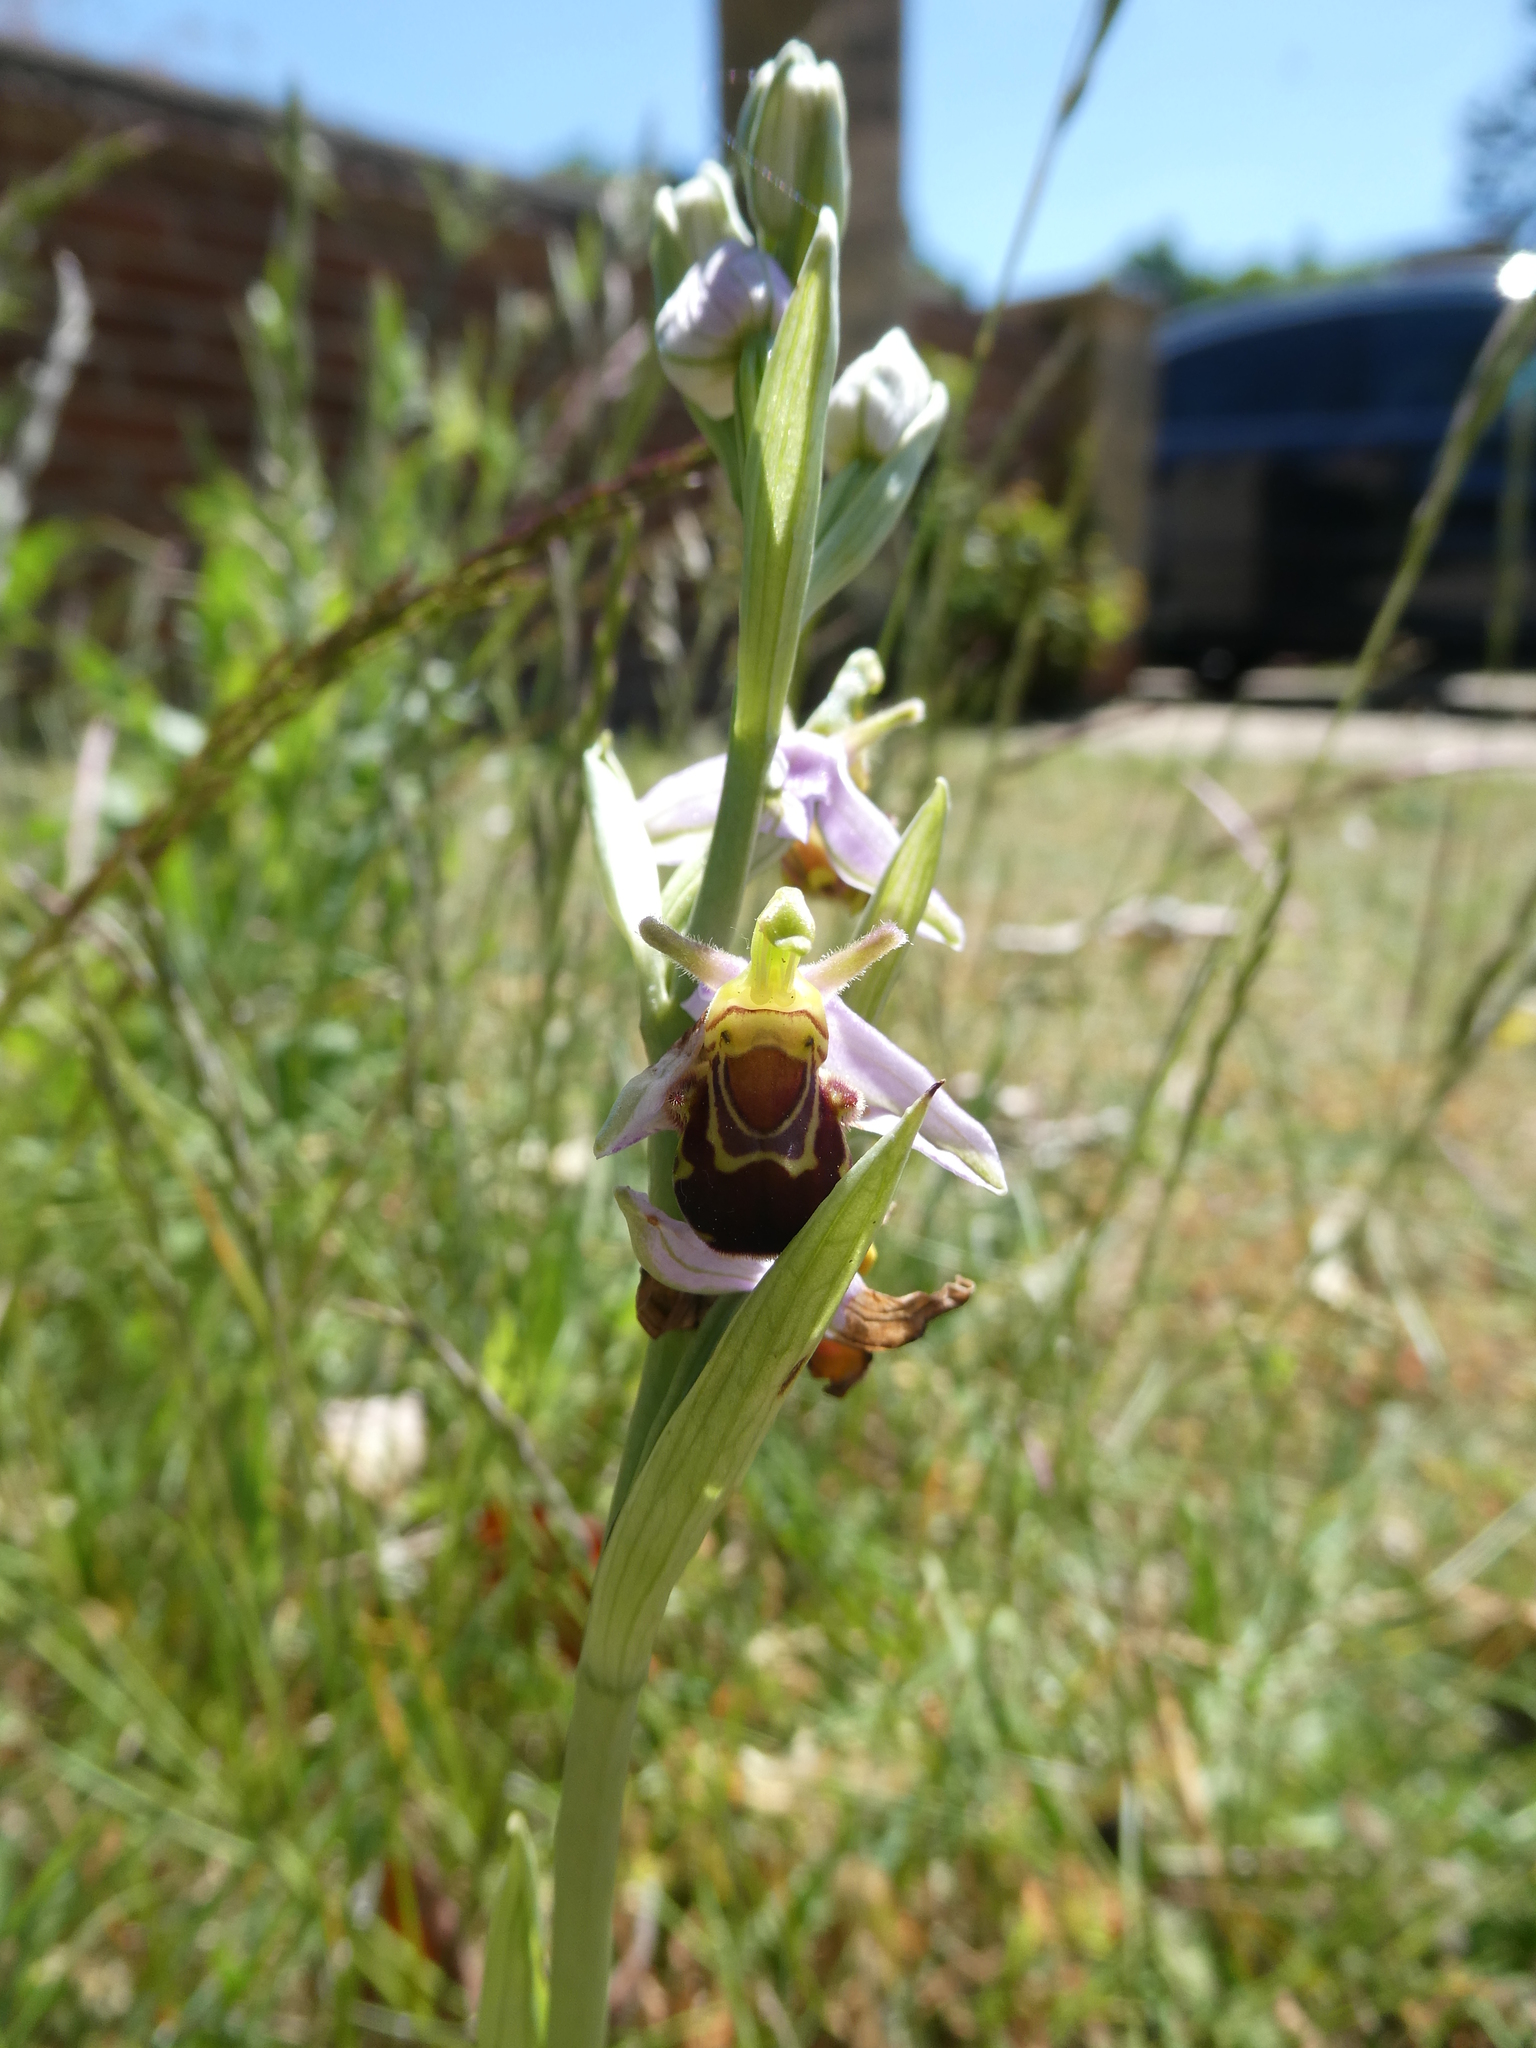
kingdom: Plantae
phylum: Tracheophyta
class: Liliopsida
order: Asparagales
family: Orchidaceae
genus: Ophrys
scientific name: Ophrys apifera
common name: Bee orchid
